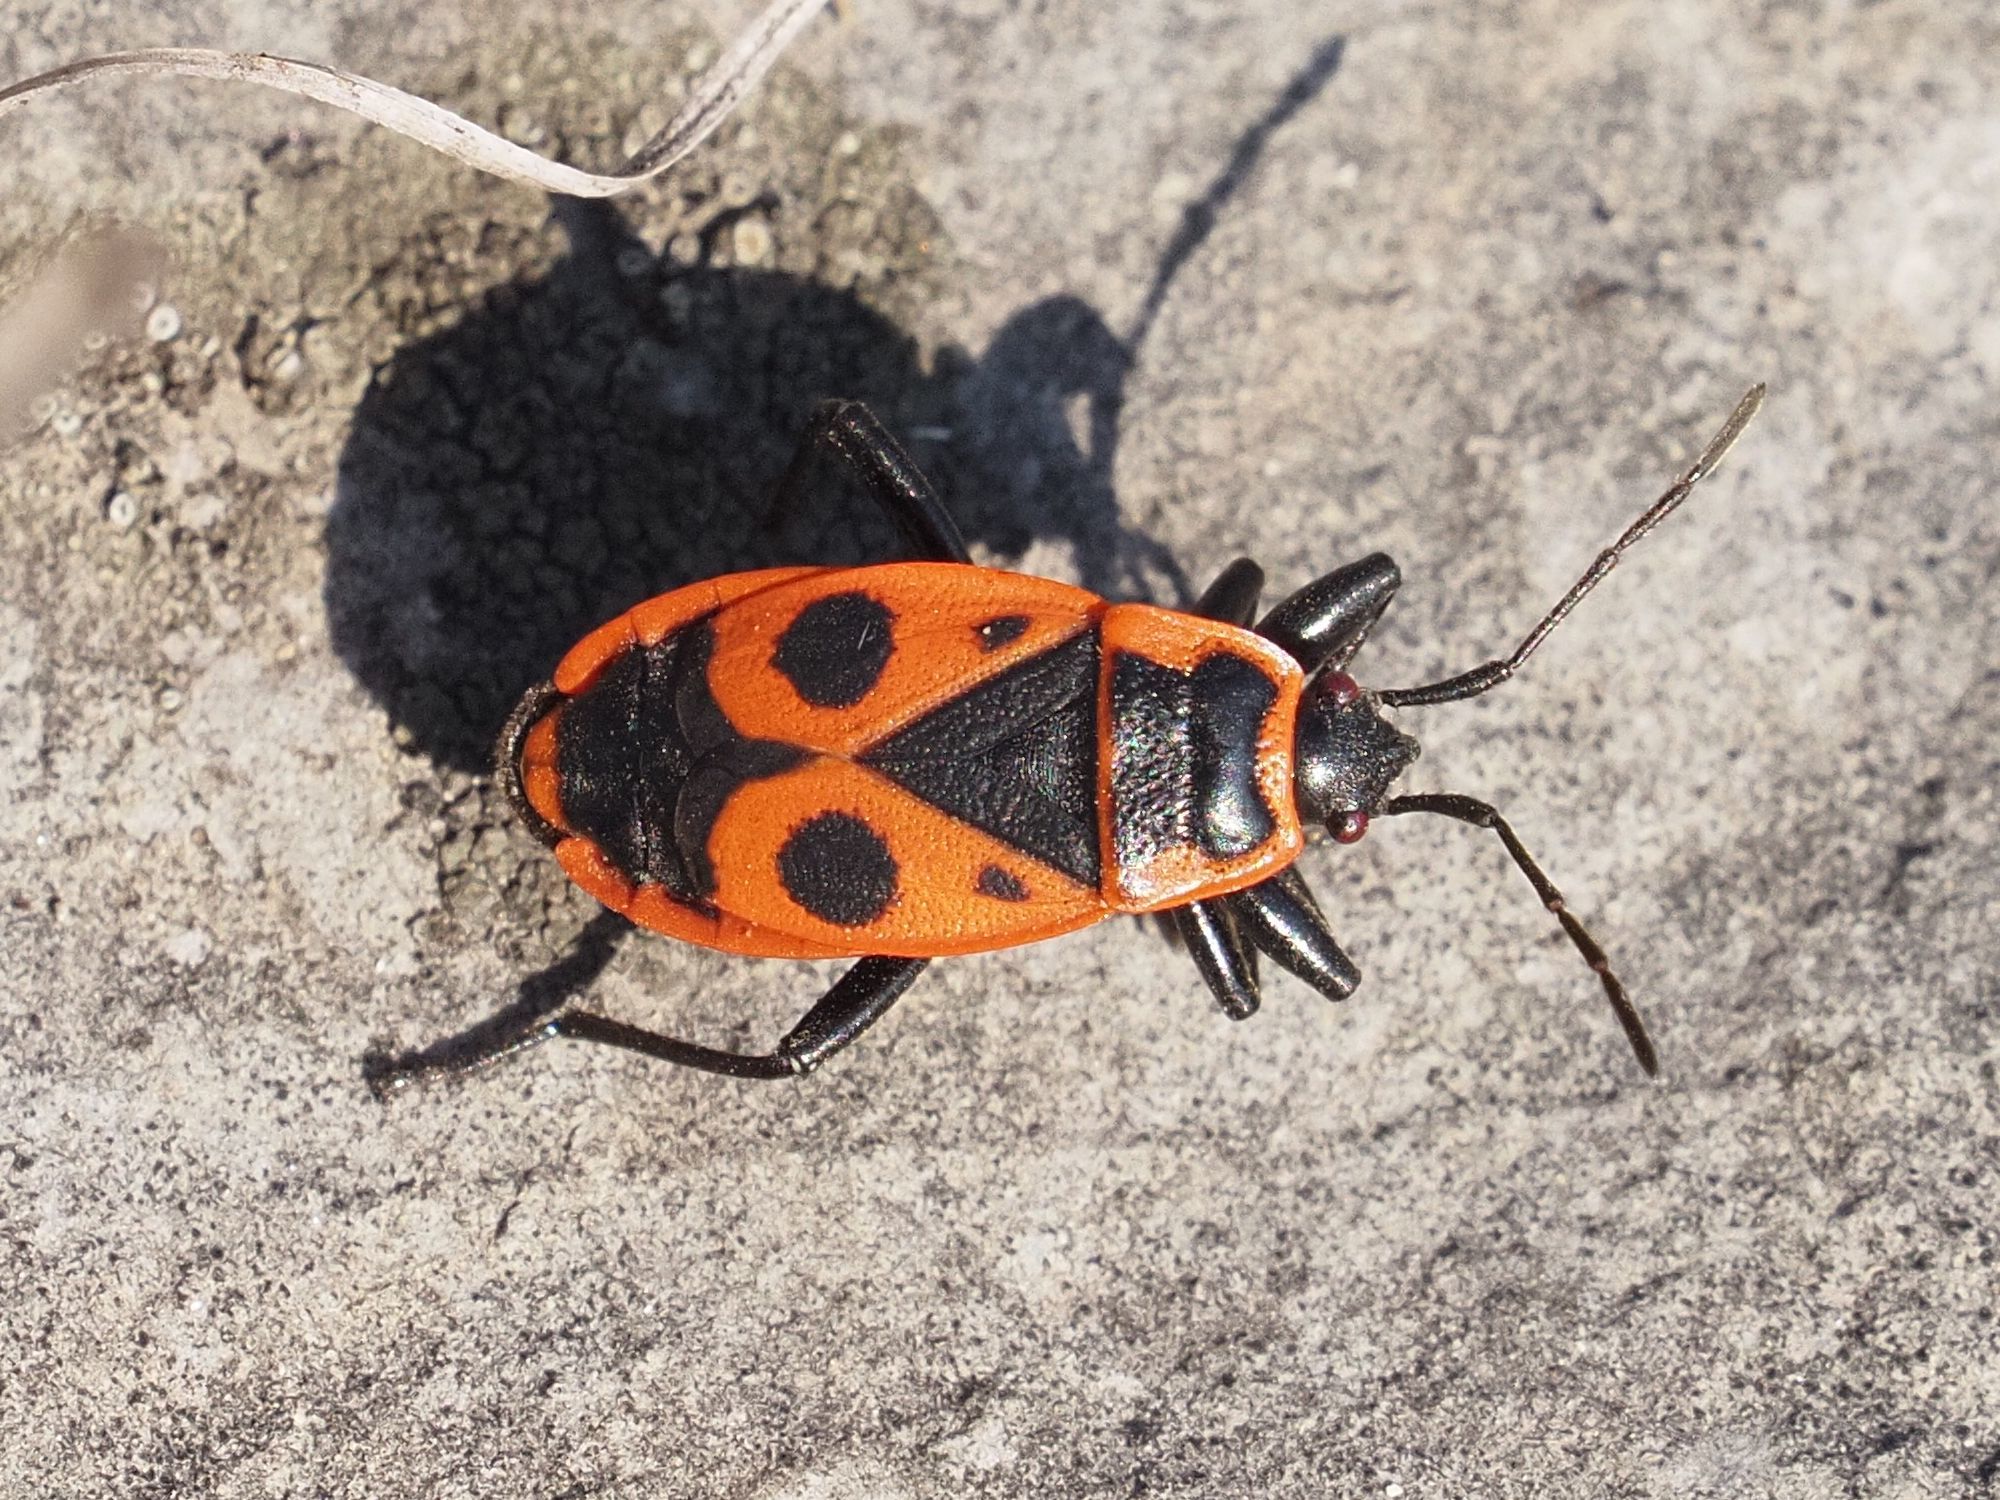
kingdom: Animalia
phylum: Arthropoda
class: Insecta
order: Hemiptera
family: Pyrrhocoridae
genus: Pyrrhocoris
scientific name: Pyrrhocoris apterus
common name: Firebug
